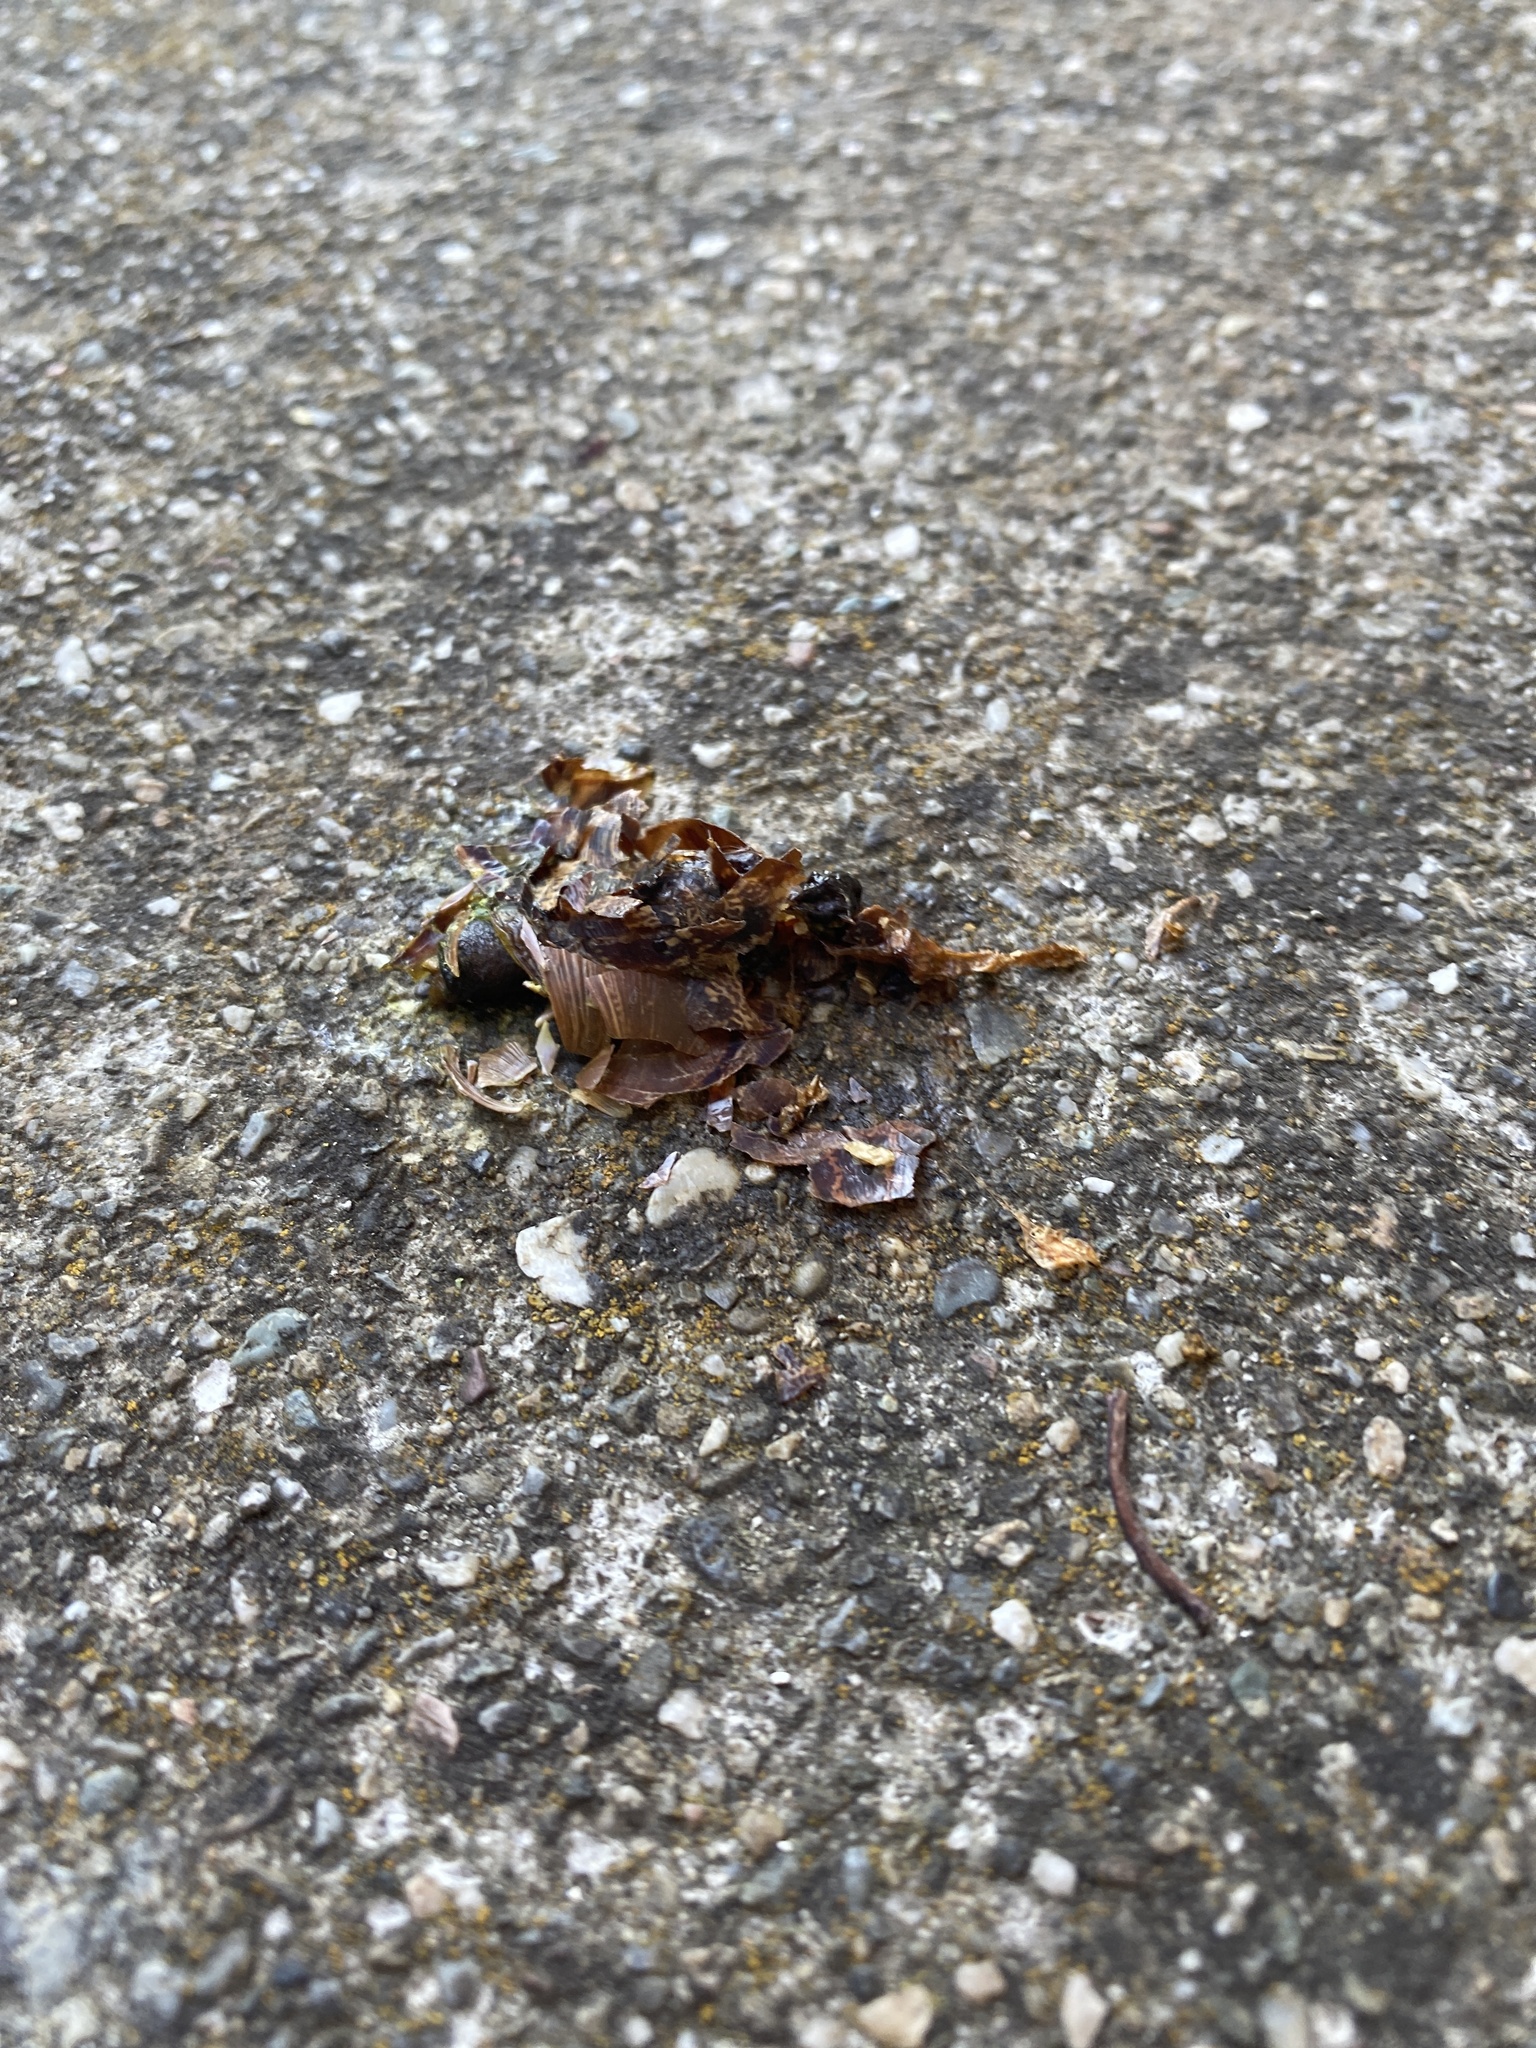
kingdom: Animalia
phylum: Mollusca
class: Gastropoda
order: Stylommatophora
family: Helicidae
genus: Cornu
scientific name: Cornu aspersum
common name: Brown garden snail
